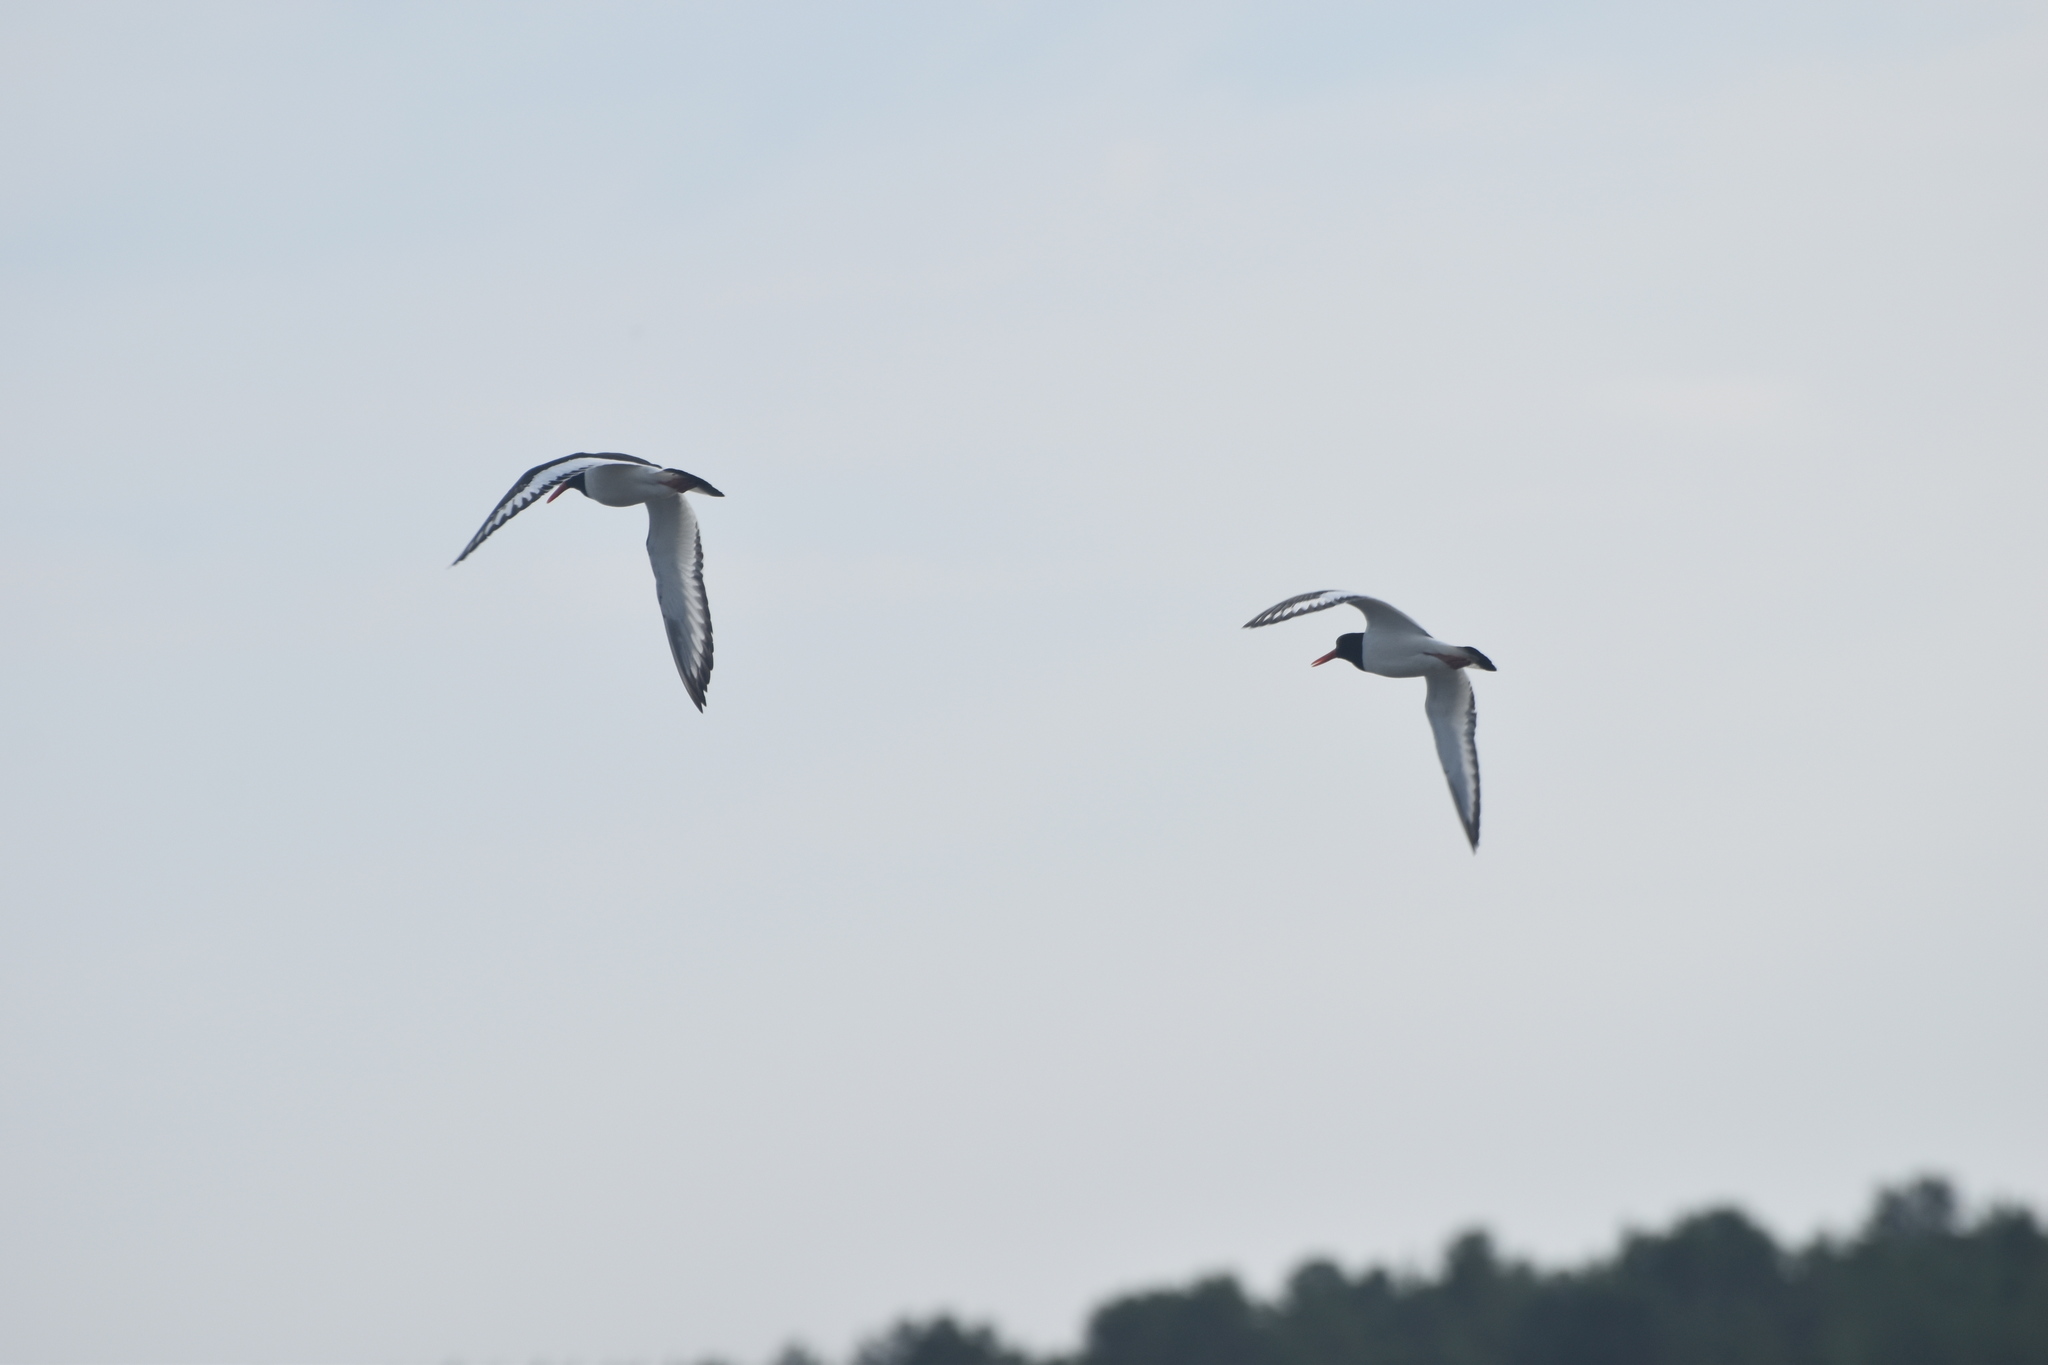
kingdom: Animalia
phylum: Chordata
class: Aves
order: Charadriiformes
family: Haematopodidae
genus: Haematopus
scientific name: Haematopus ostralegus
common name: Eurasian oystercatcher
